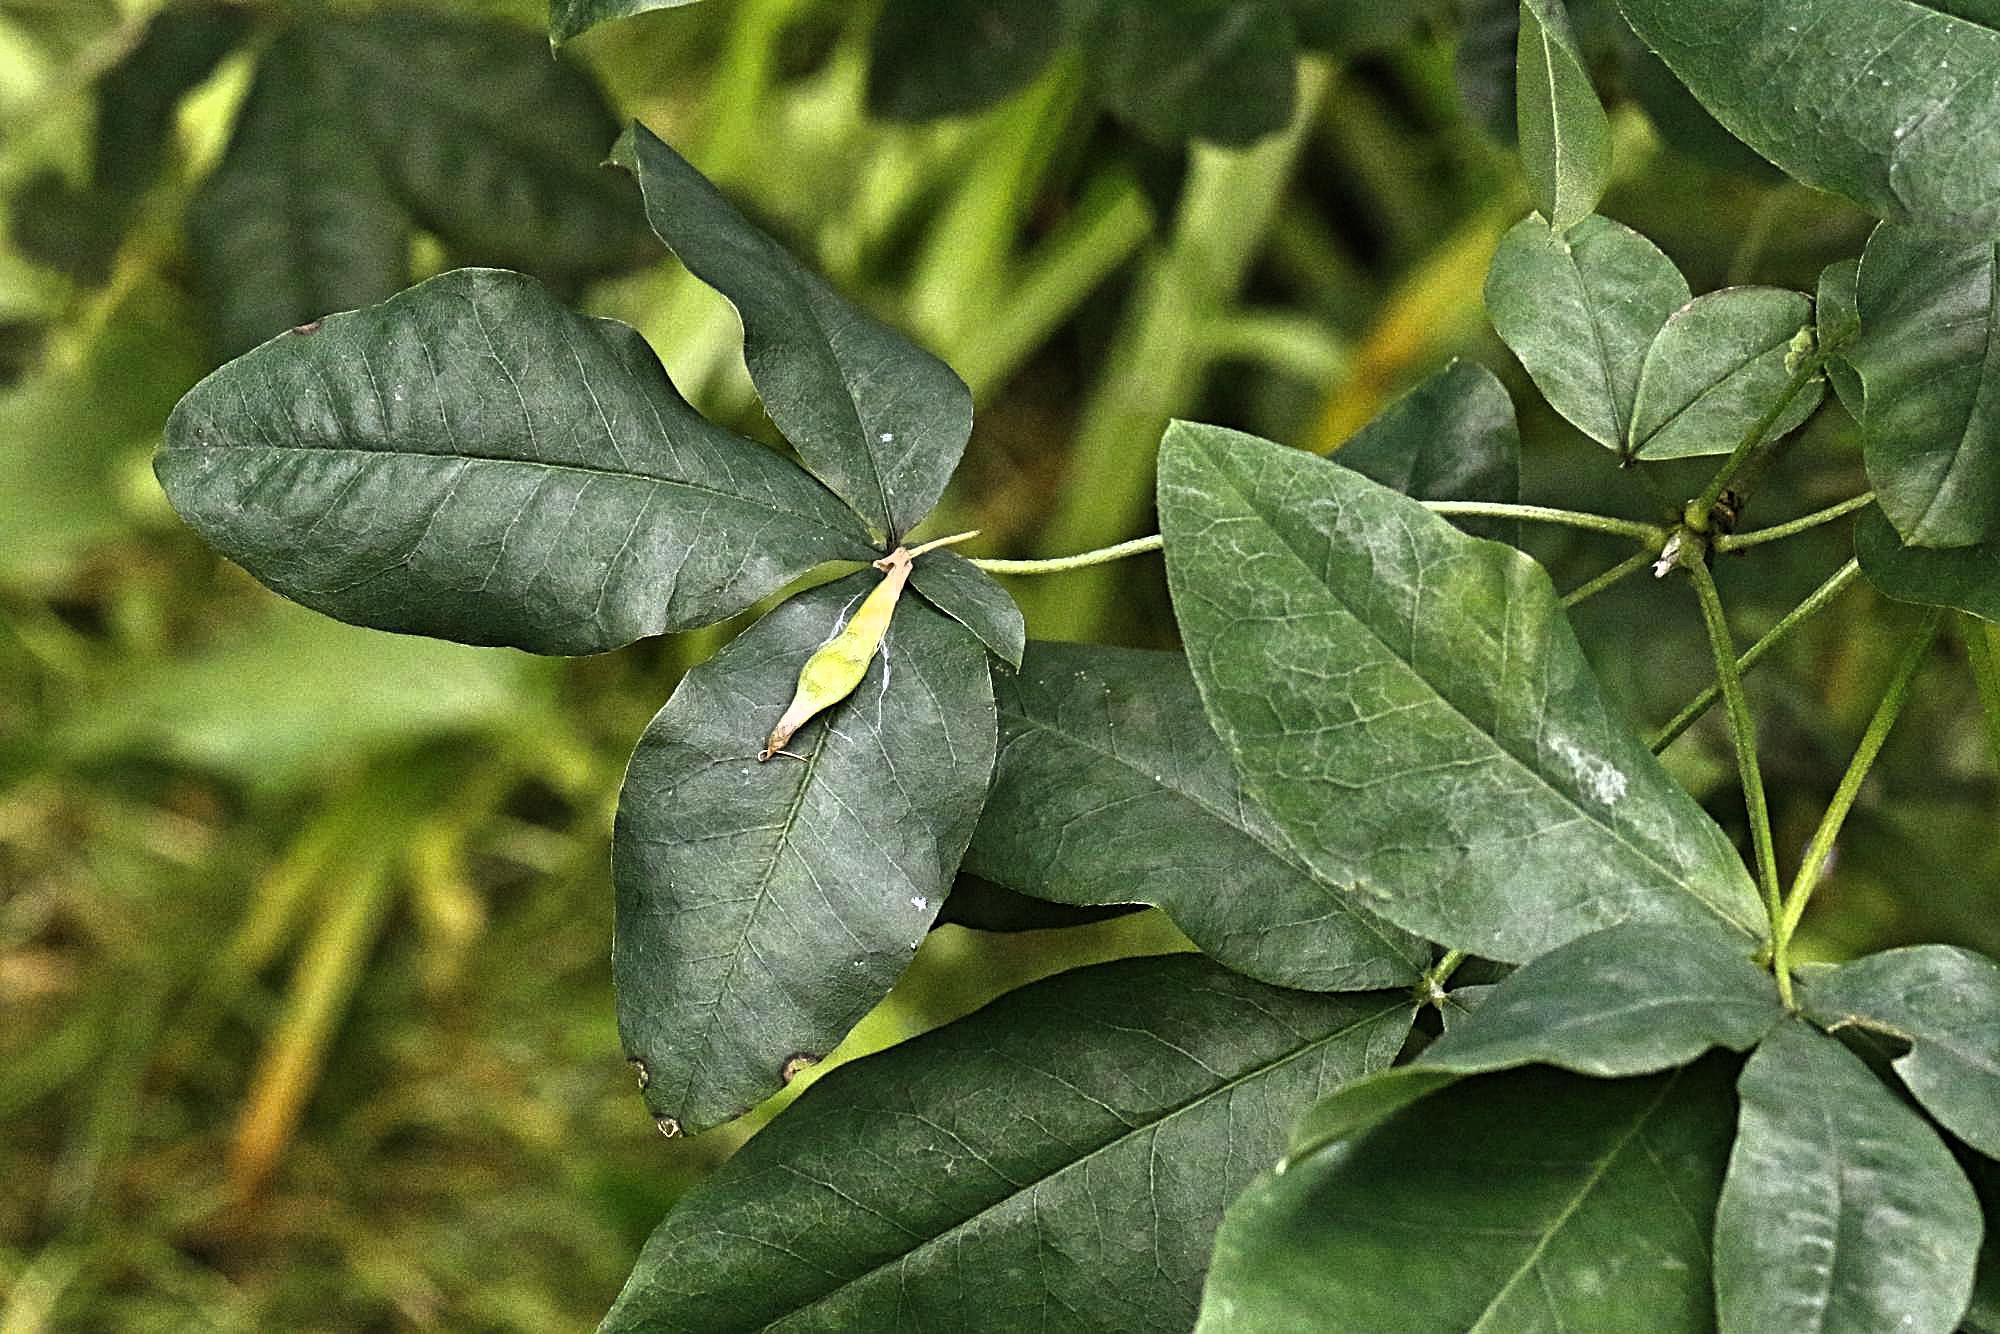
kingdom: Plantae
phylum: Tracheophyta
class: Magnoliopsida
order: Fabales
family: Fabaceae
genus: Laburnum
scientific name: Laburnum anagyroides
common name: Laburnum
